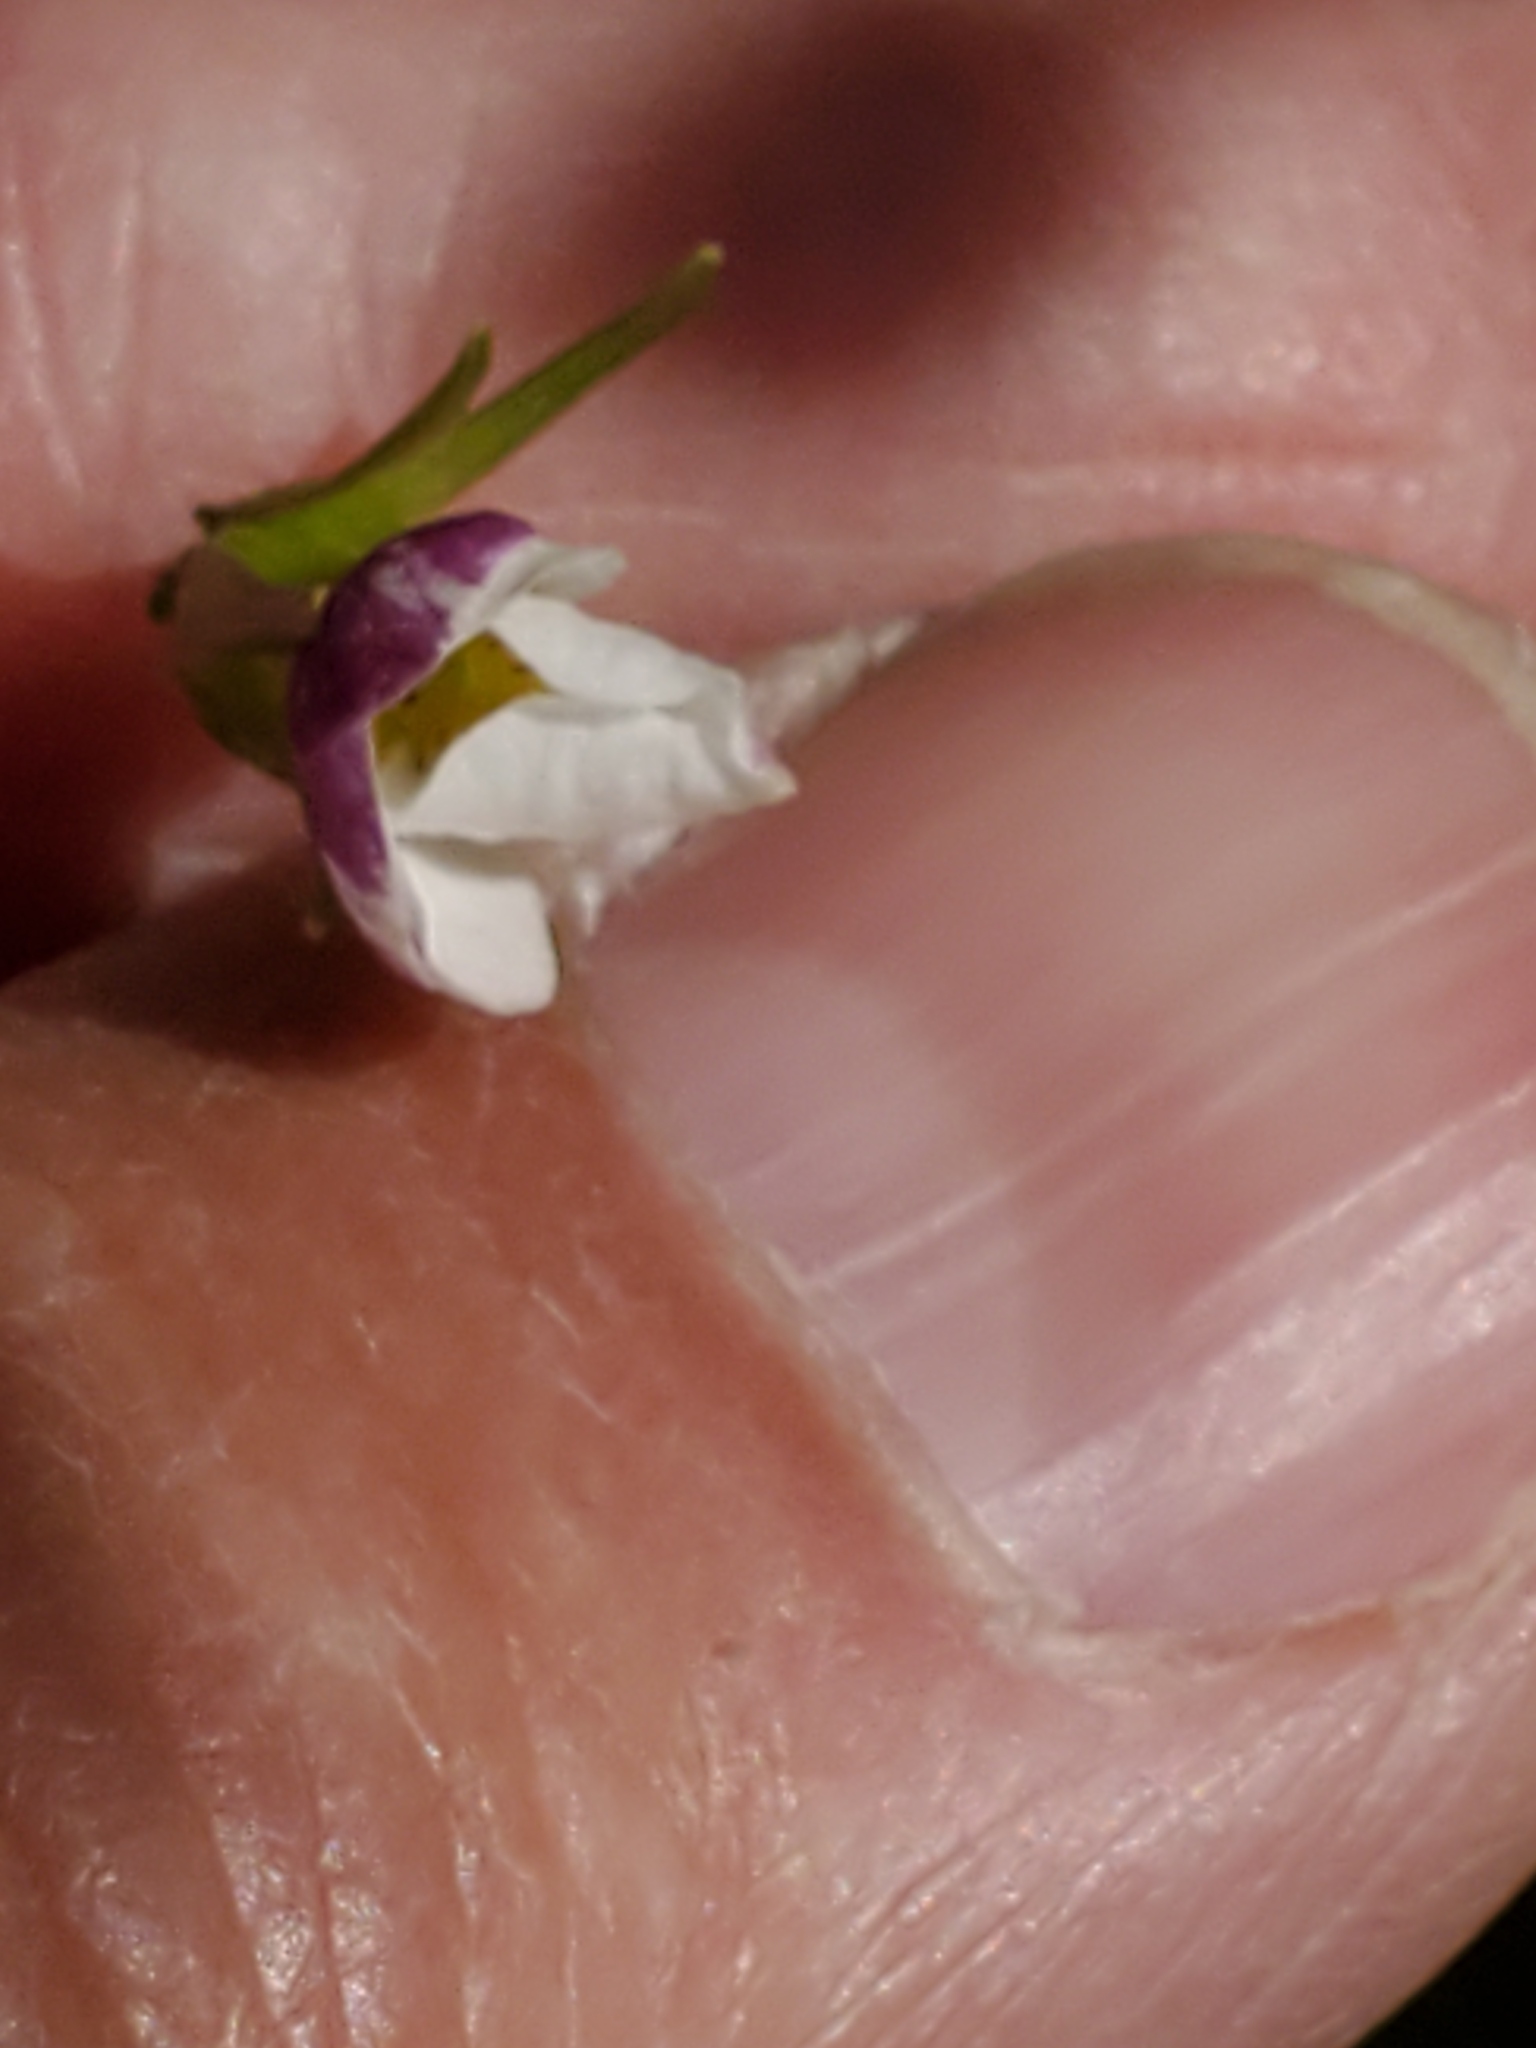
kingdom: Plantae
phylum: Tracheophyta
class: Magnoliopsida
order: Malpighiales
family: Violaceae
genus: Viola
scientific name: Viola canadensis
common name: Canada violet
